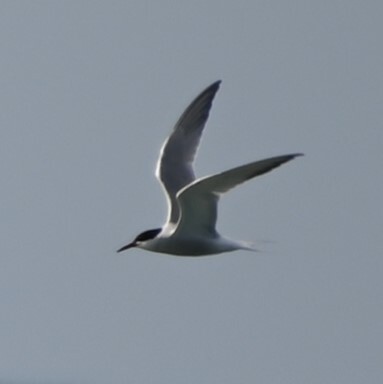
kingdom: Animalia
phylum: Chordata
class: Aves
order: Charadriiformes
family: Laridae
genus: Sterna
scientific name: Sterna hirundo
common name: Common tern
